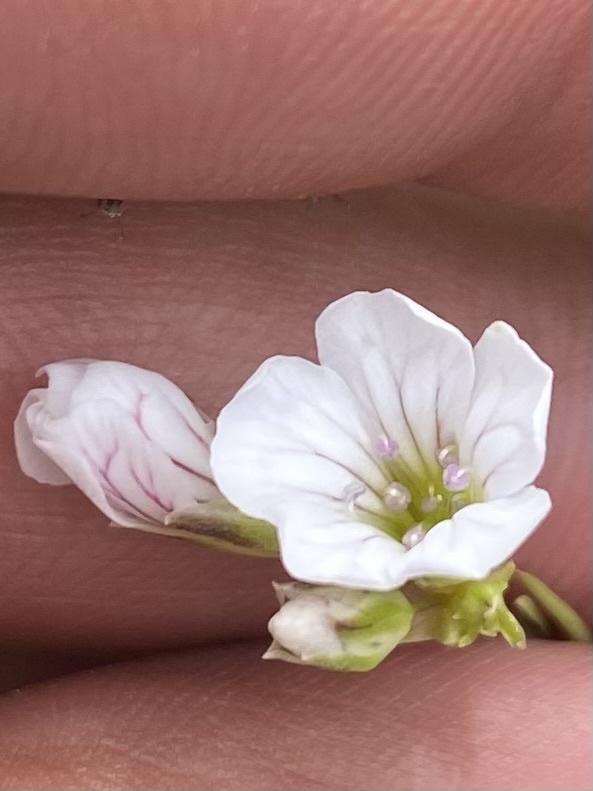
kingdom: Plantae
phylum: Tracheophyta
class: Magnoliopsida
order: Caryophyllales
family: Caryophyllaceae
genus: Gypsophila
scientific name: Gypsophila tenuifolia
